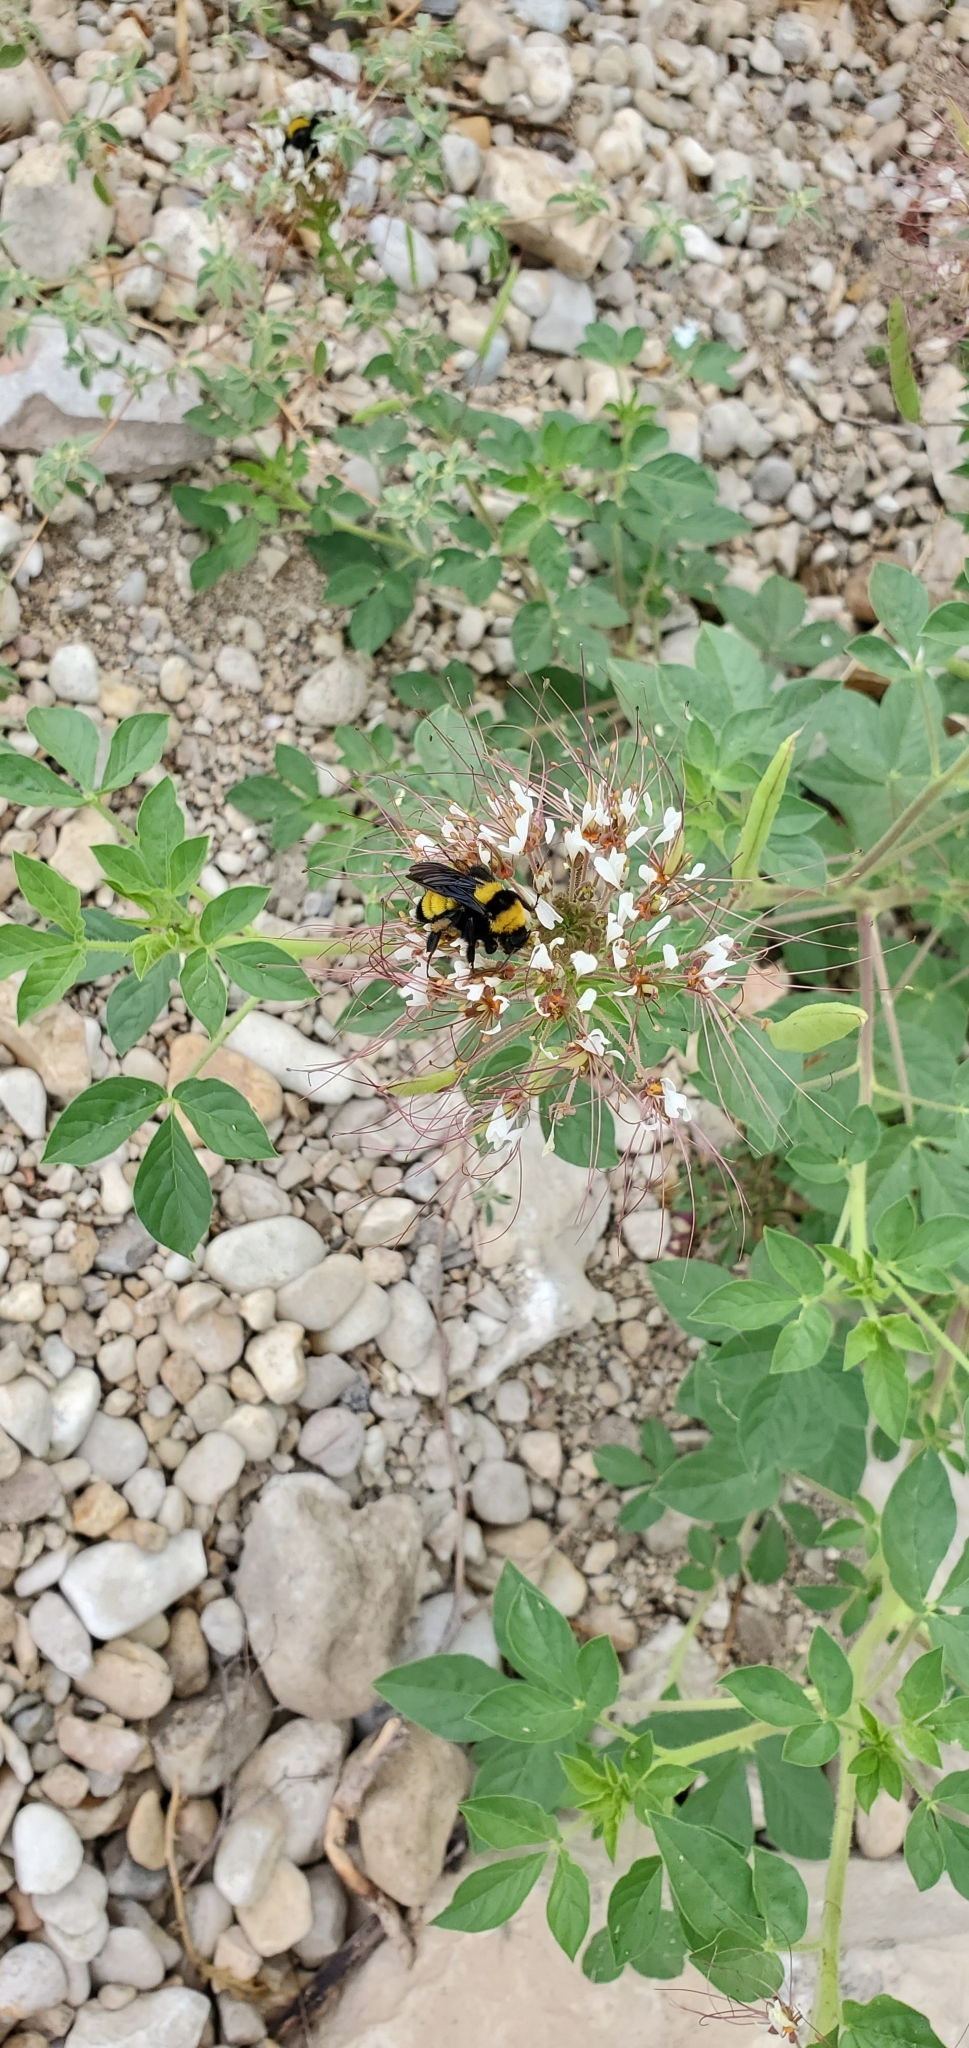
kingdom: Animalia
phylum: Arthropoda
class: Insecta
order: Hymenoptera
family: Apidae
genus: Bombus
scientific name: Bombus sonorus
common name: Sonoran bumble bee
